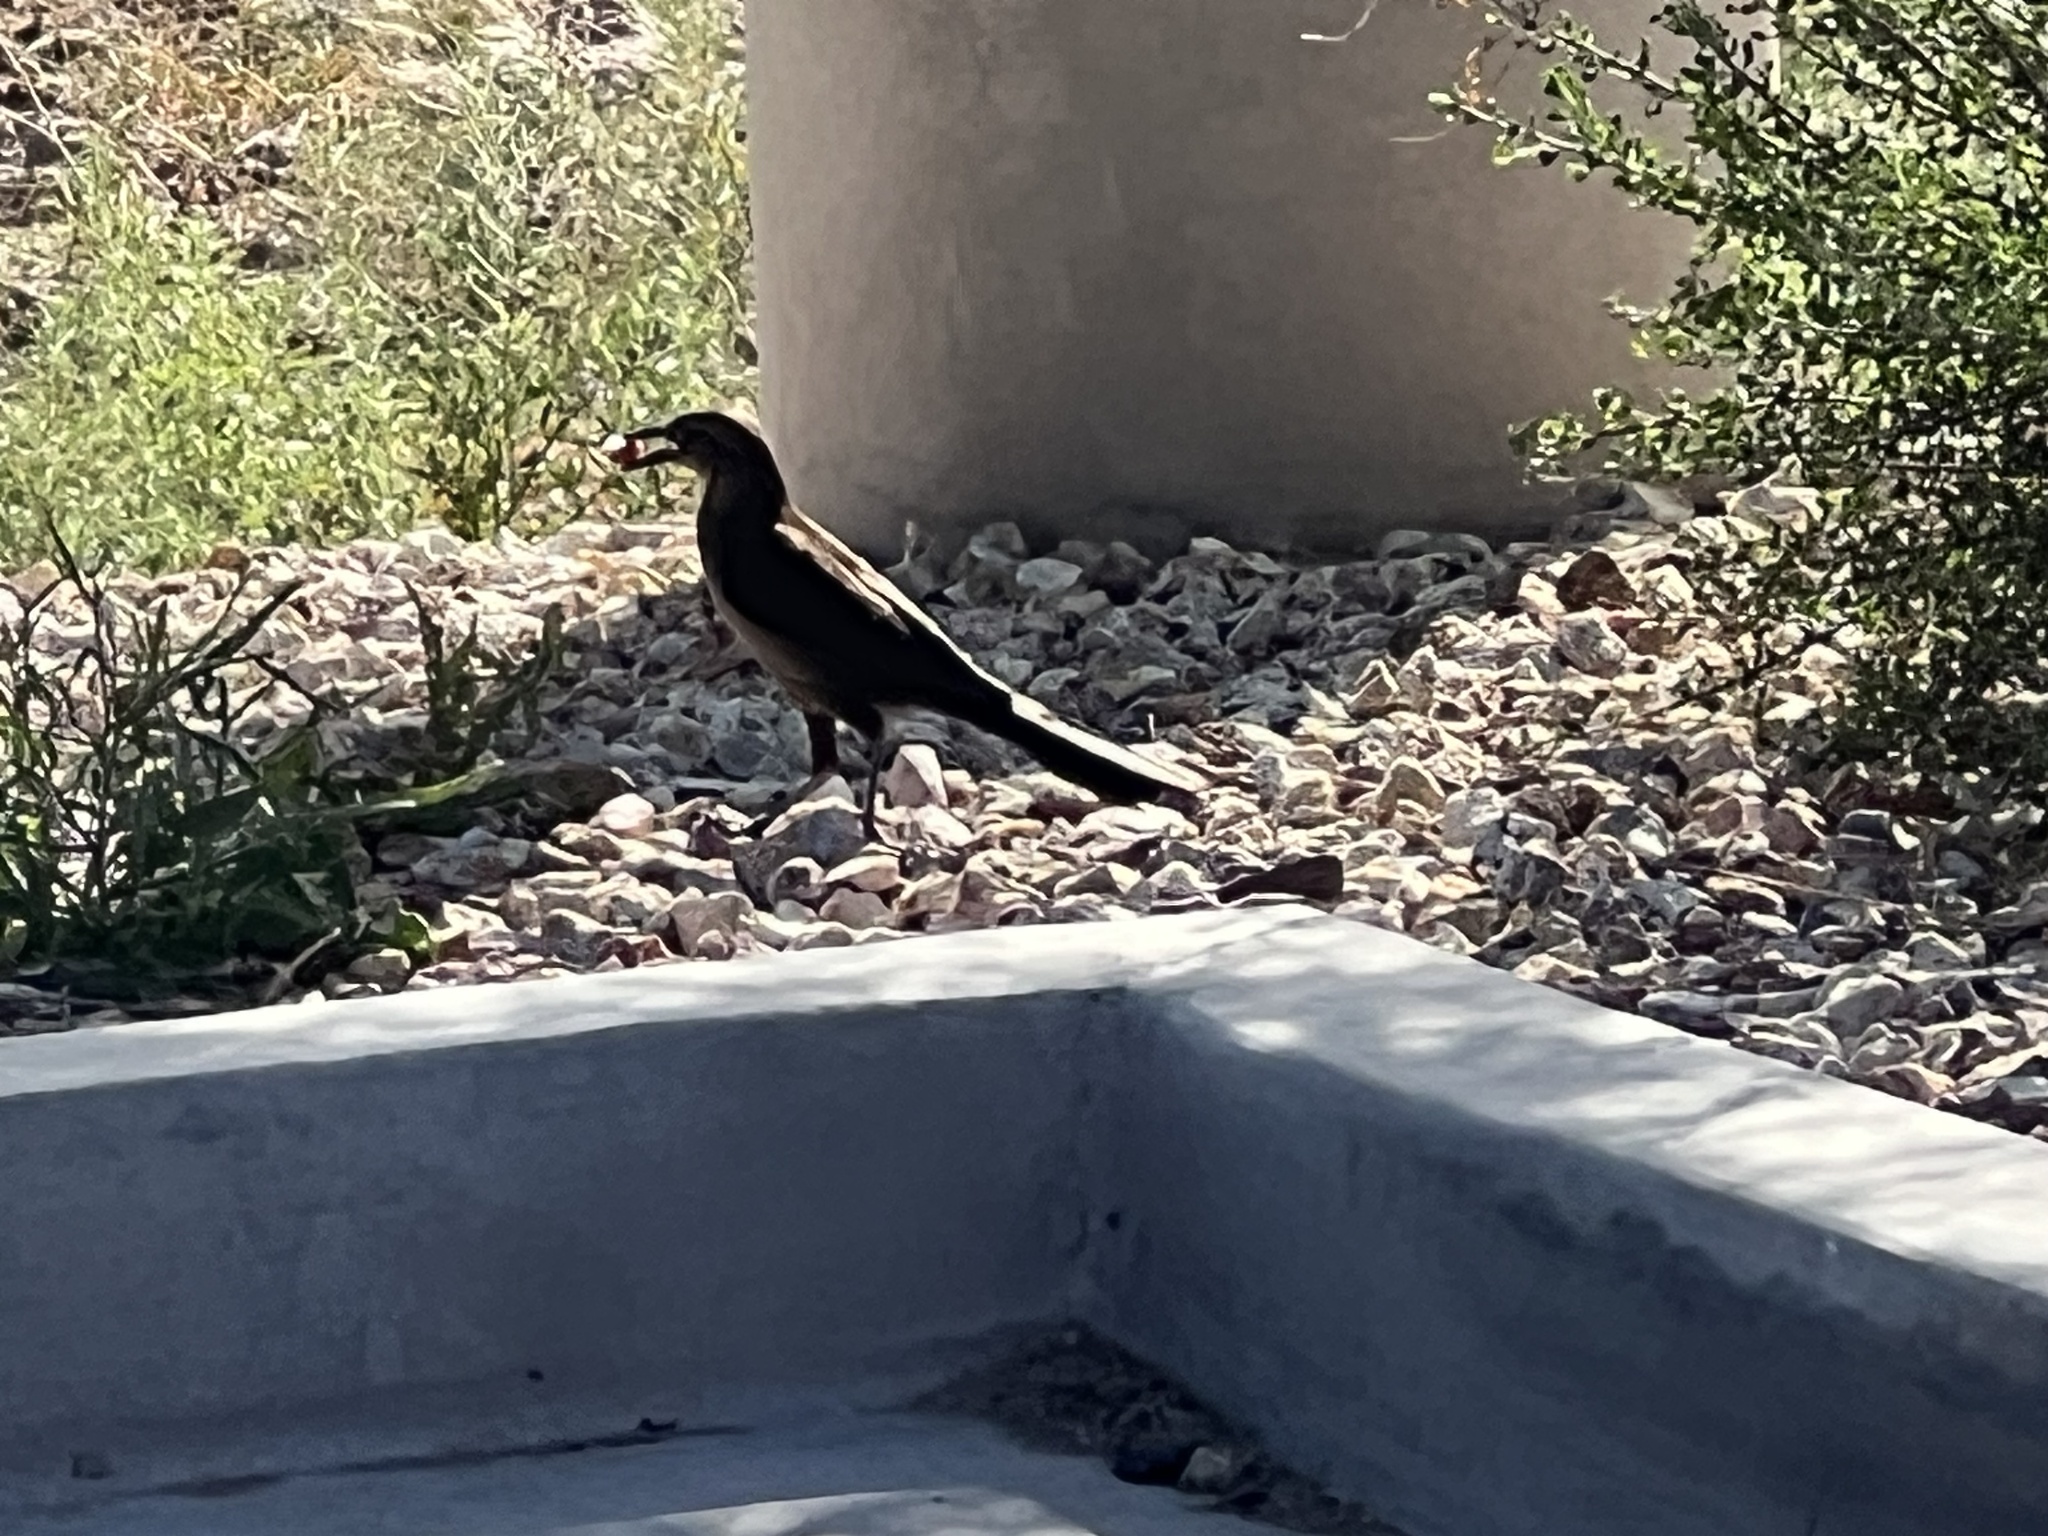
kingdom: Animalia
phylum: Chordata
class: Aves
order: Passeriformes
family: Icteridae
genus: Quiscalus
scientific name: Quiscalus mexicanus
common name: Great-tailed grackle
